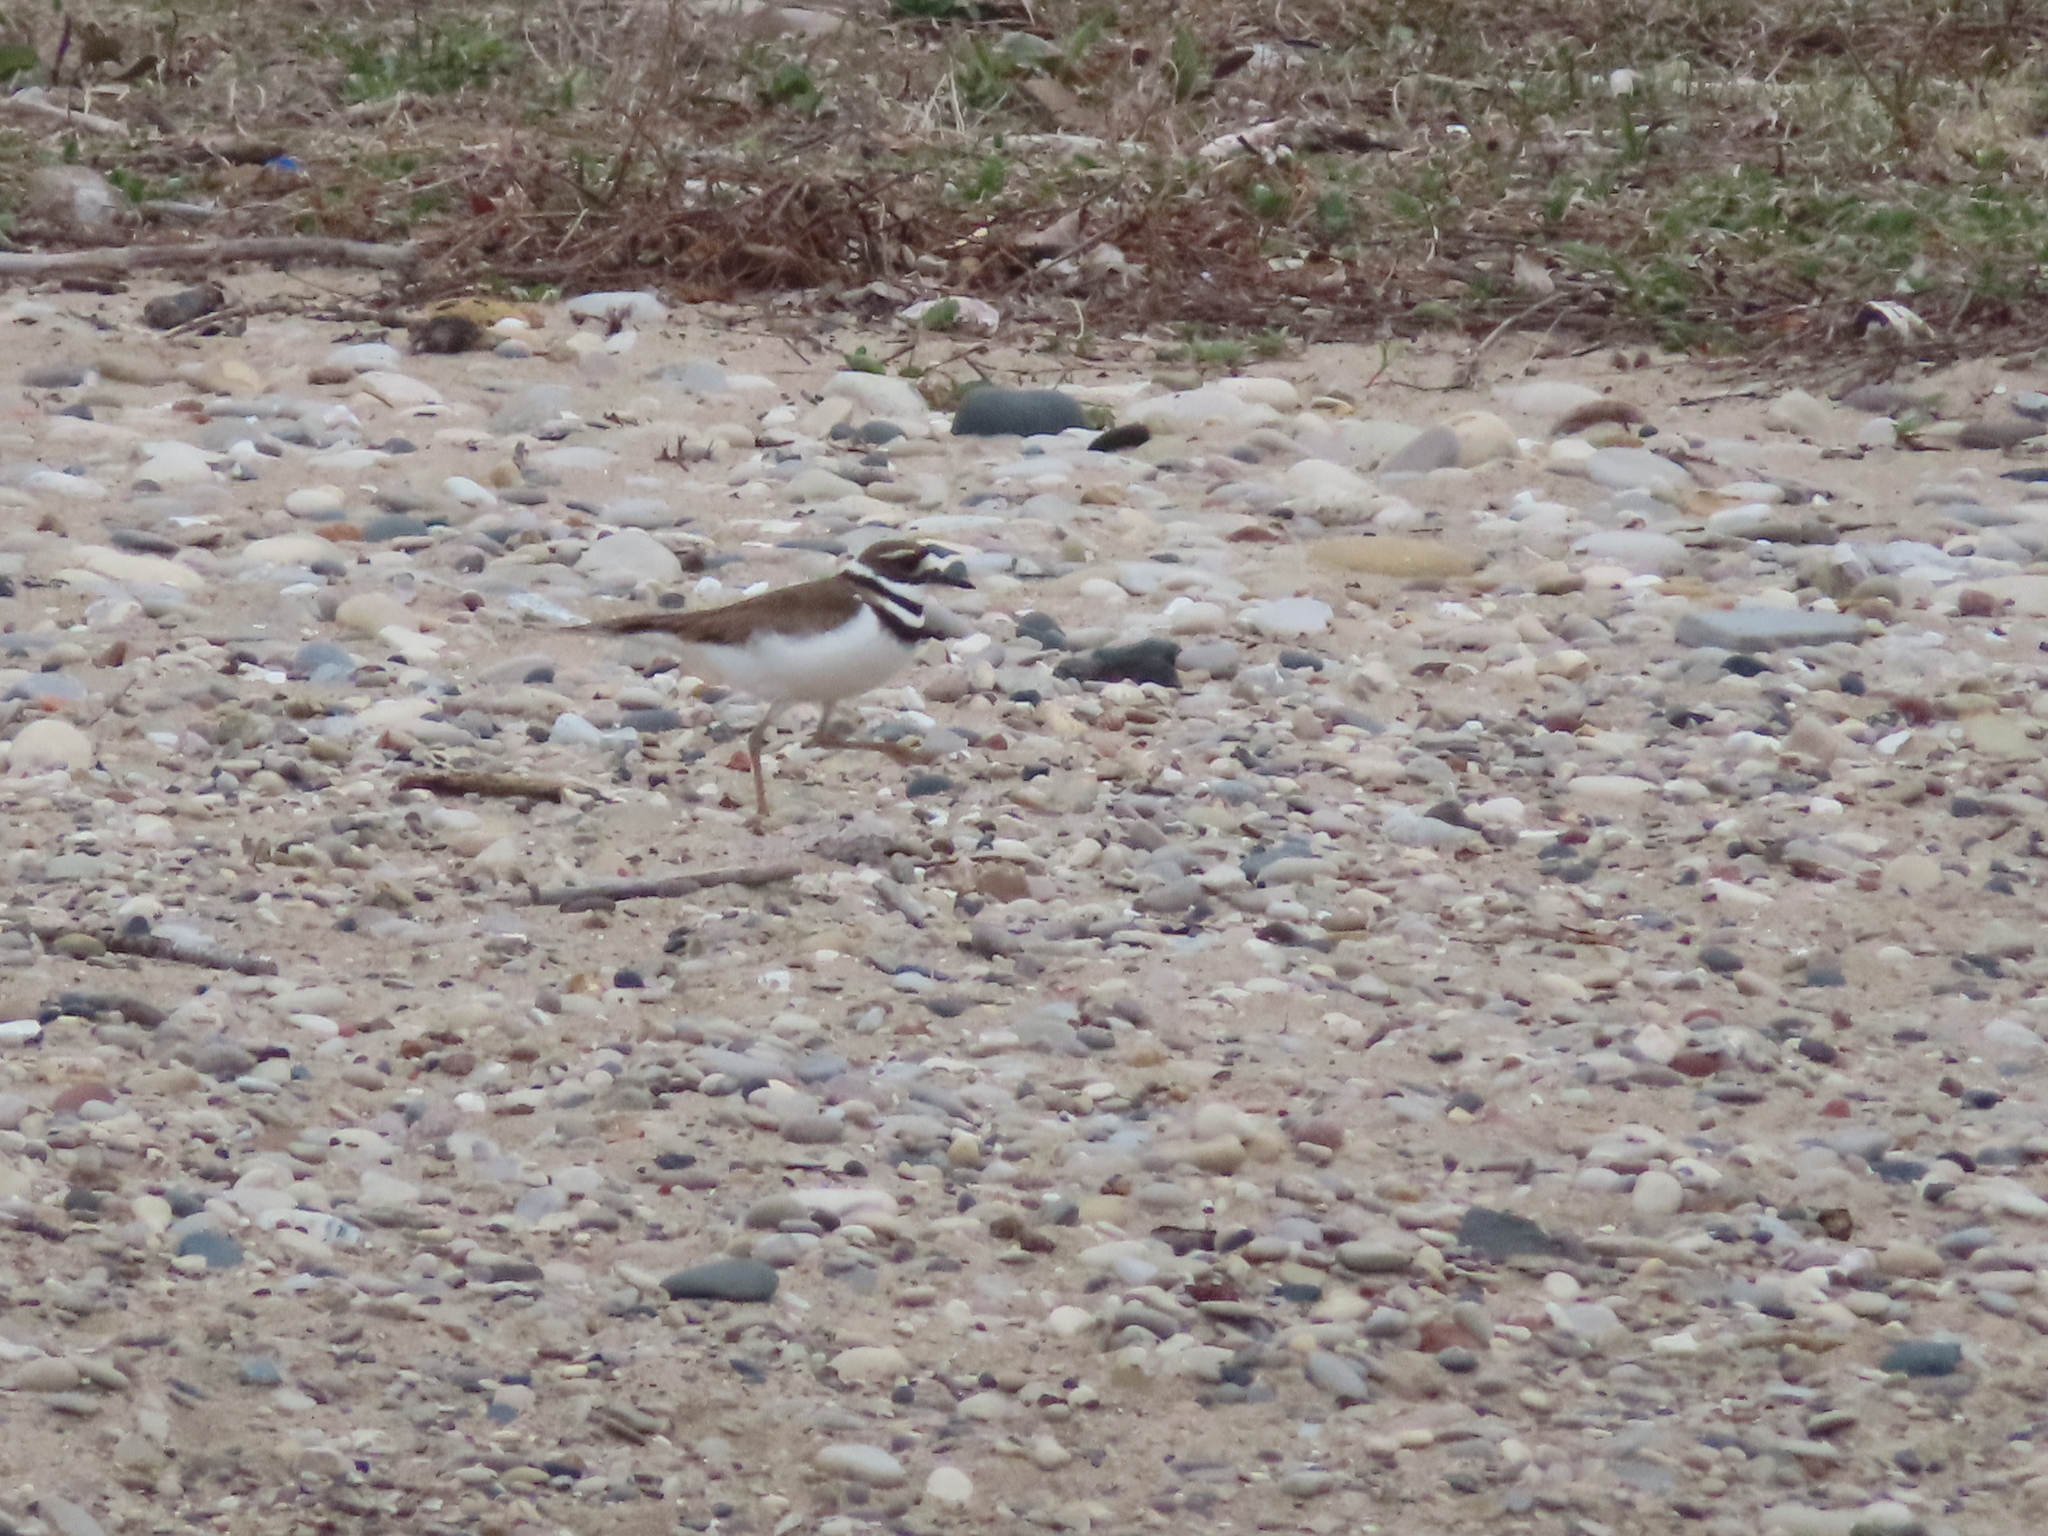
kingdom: Animalia
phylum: Chordata
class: Aves
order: Charadriiformes
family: Charadriidae
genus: Charadrius
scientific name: Charadrius vociferus
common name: Killdeer
